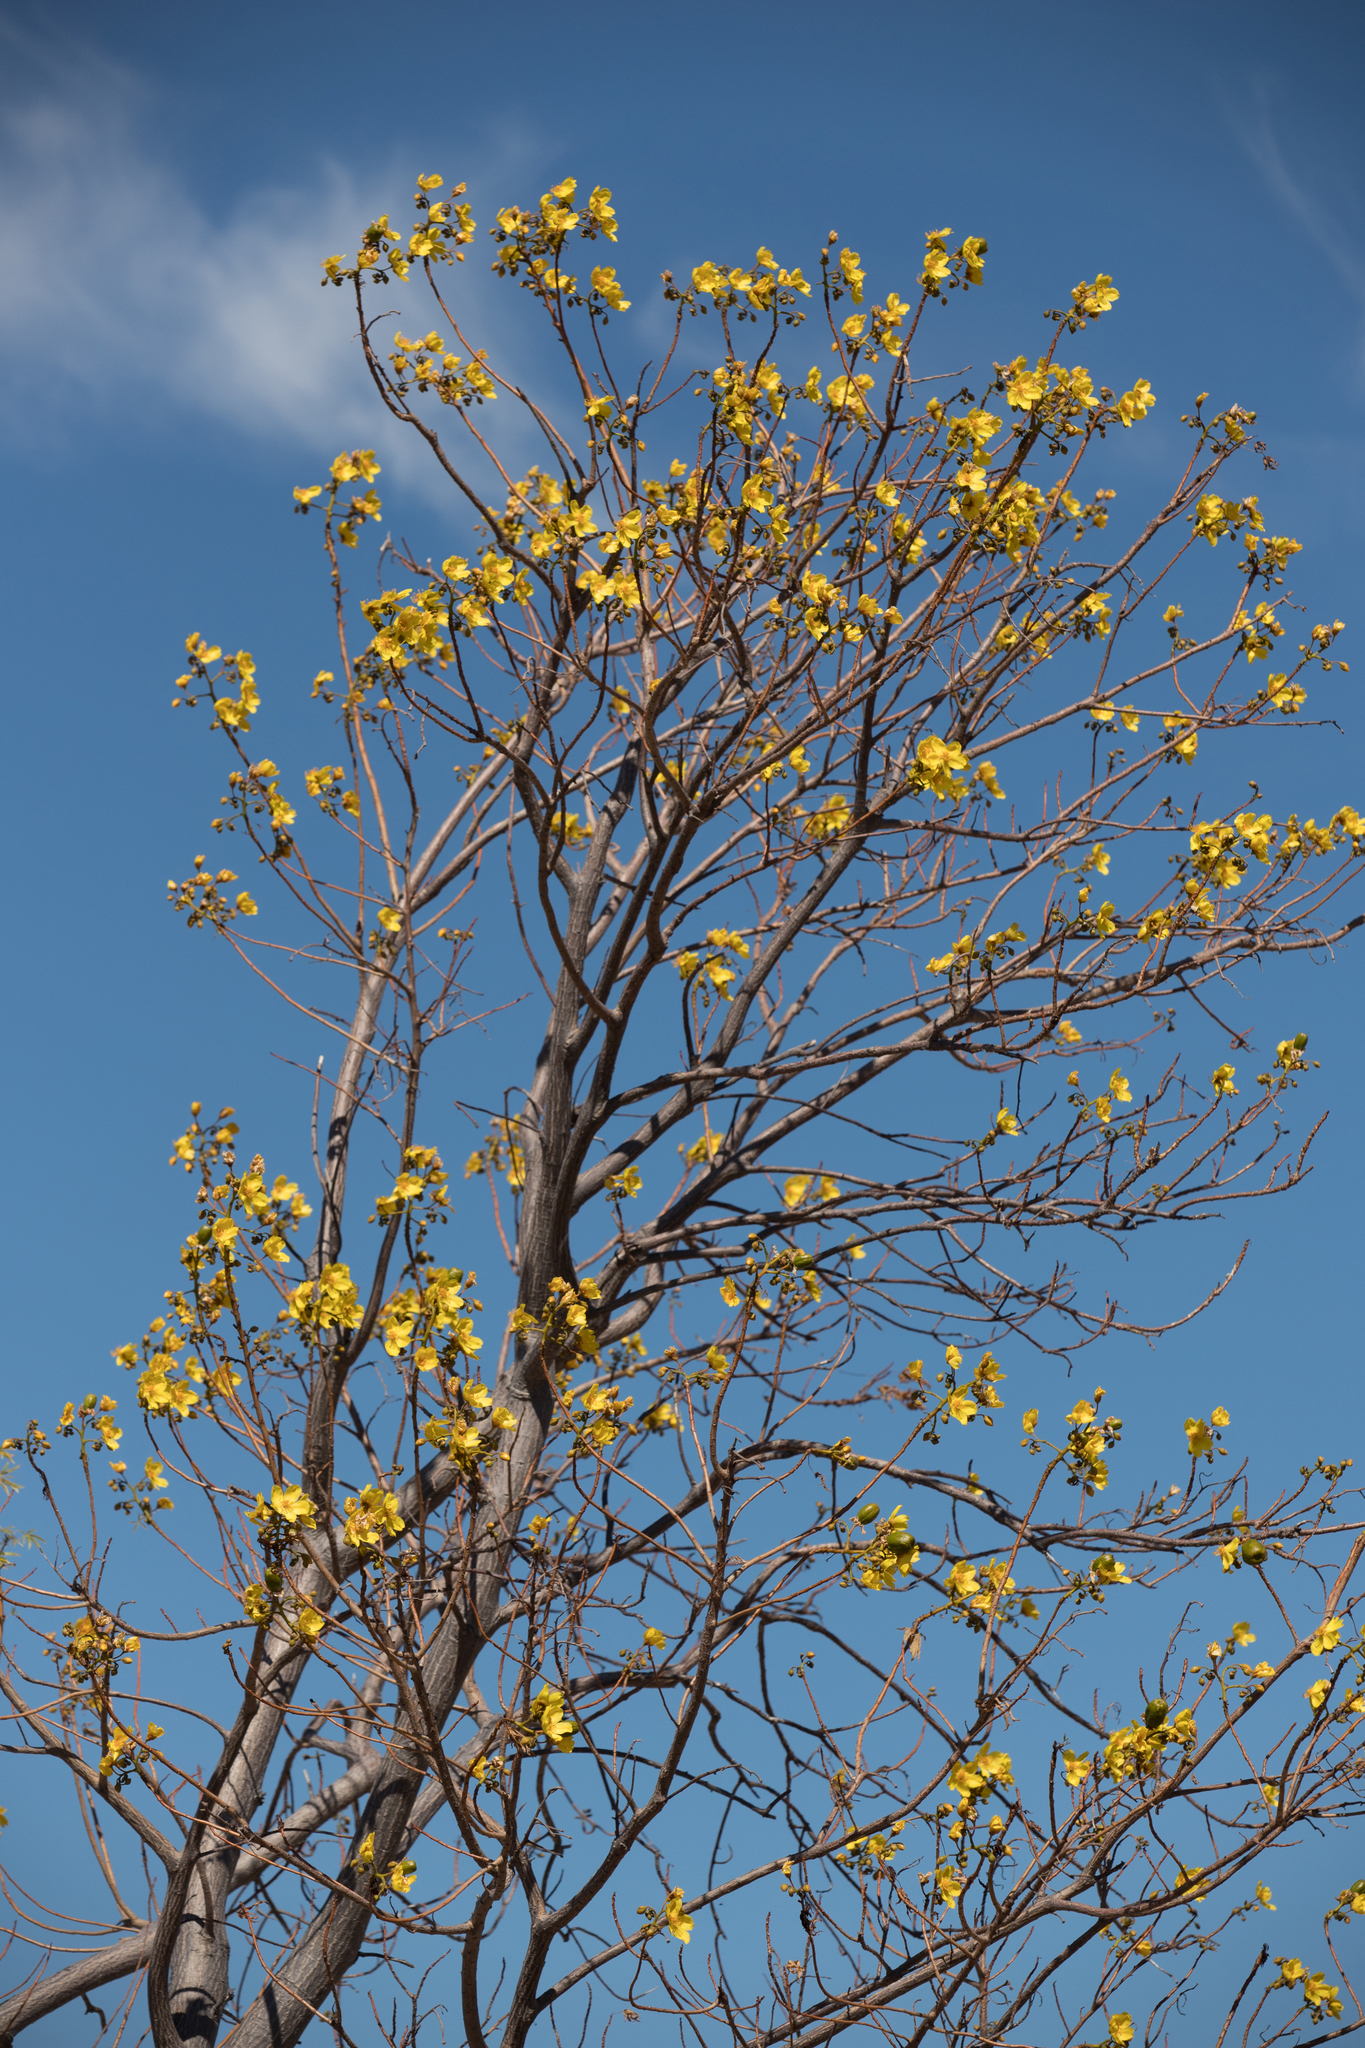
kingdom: Plantae
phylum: Tracheophyta
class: Magnoliopsida
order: Malvales
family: Cochlospermaceae
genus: Cochlospermum
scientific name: Cochlospermum gillivraei
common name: Cottontree
